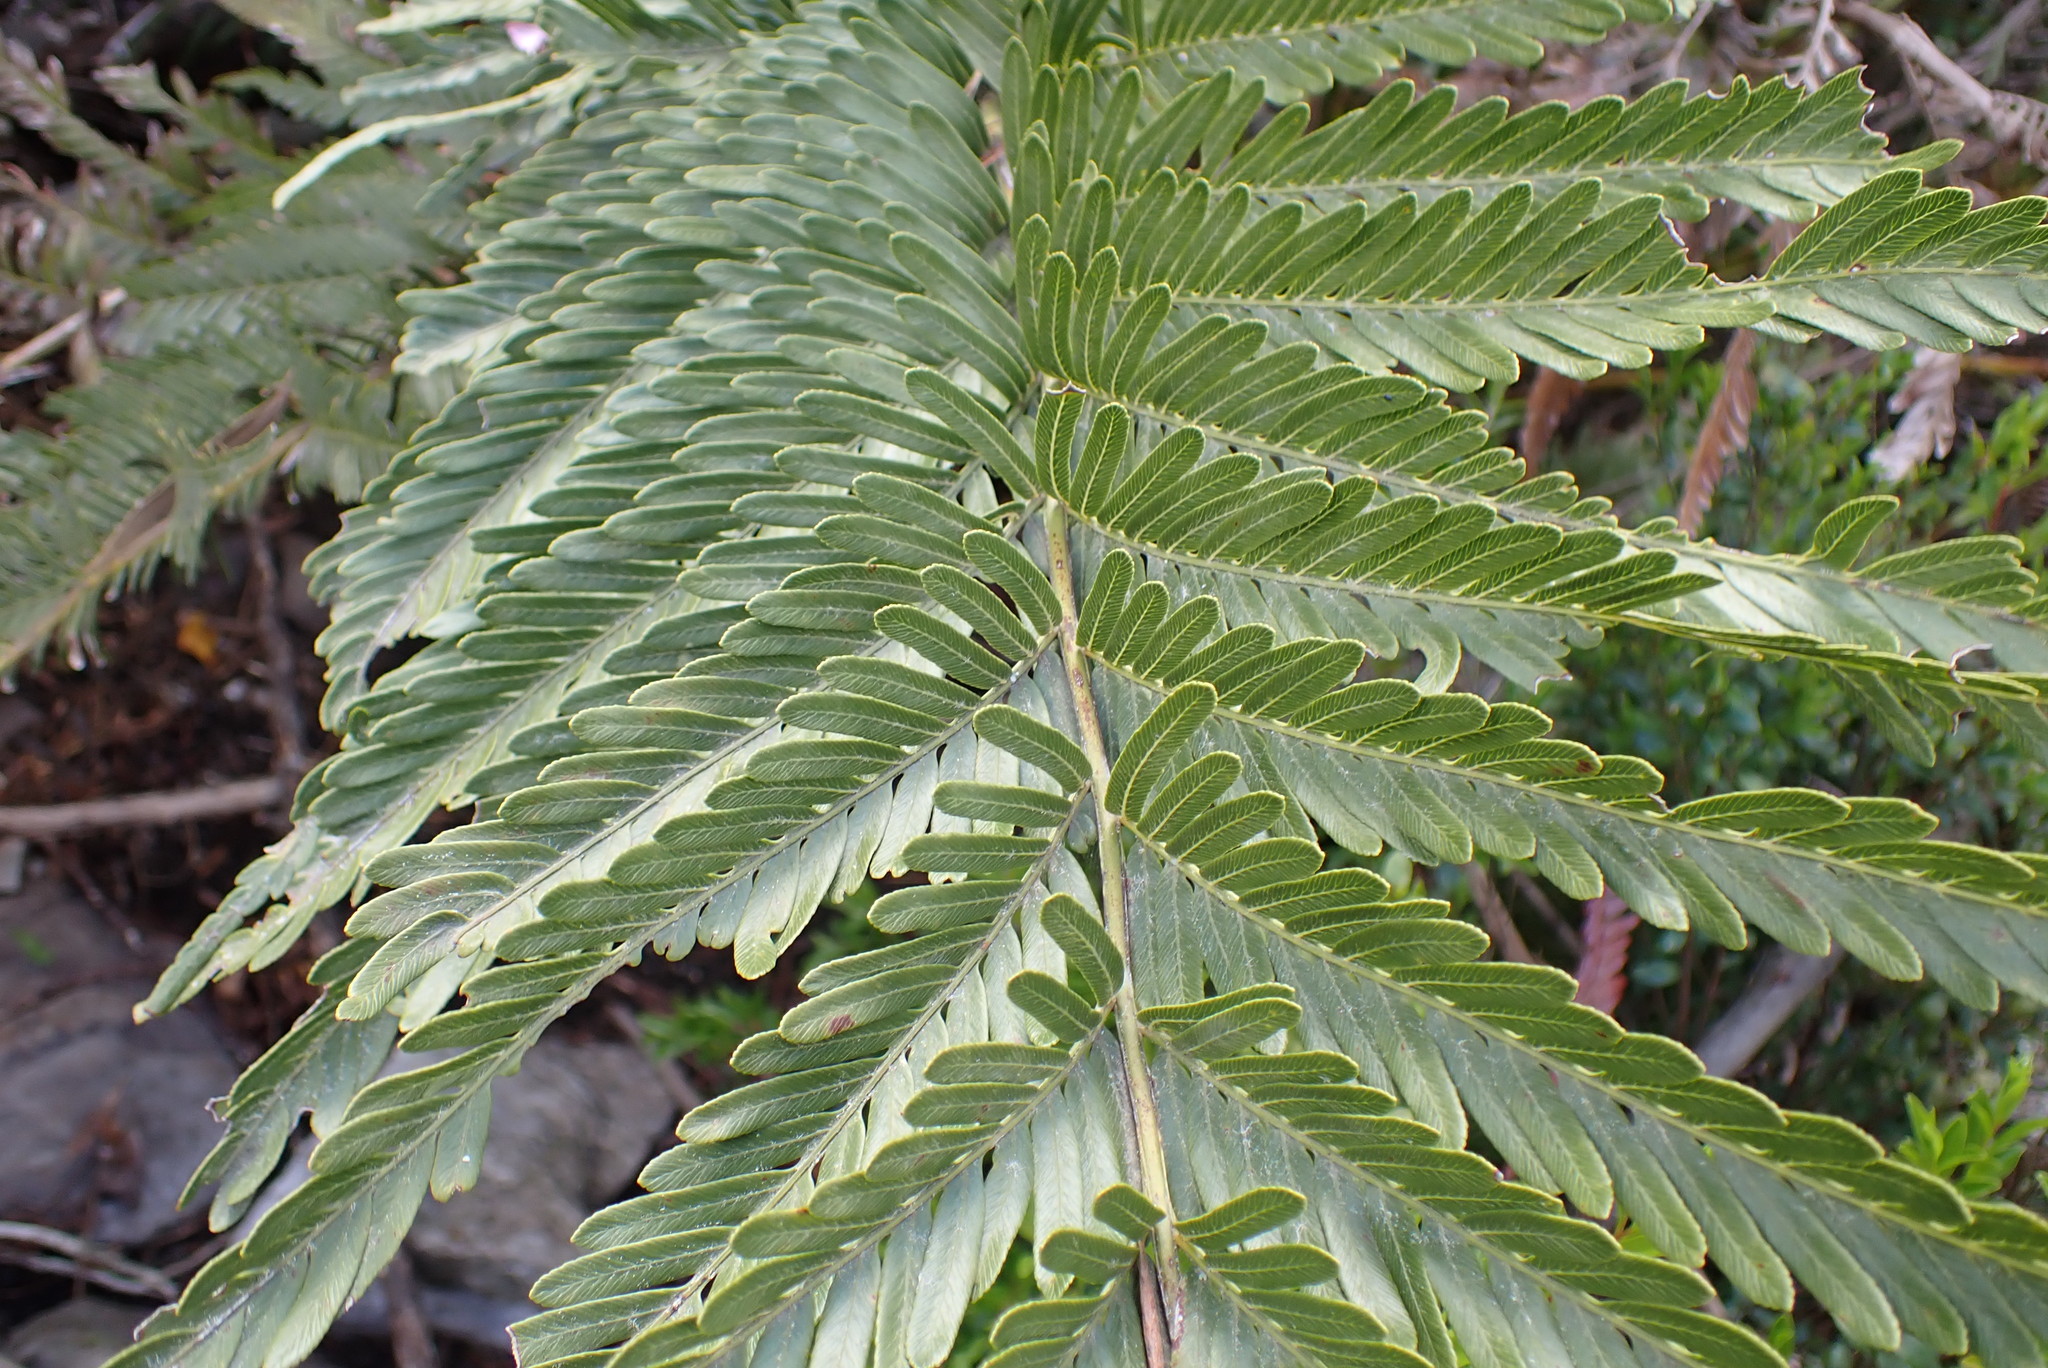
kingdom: Plantae
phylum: Tracheophyta
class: Polypodiopsida
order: Osmundales
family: Osmundaceae
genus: Todea
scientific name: Todea barbara
